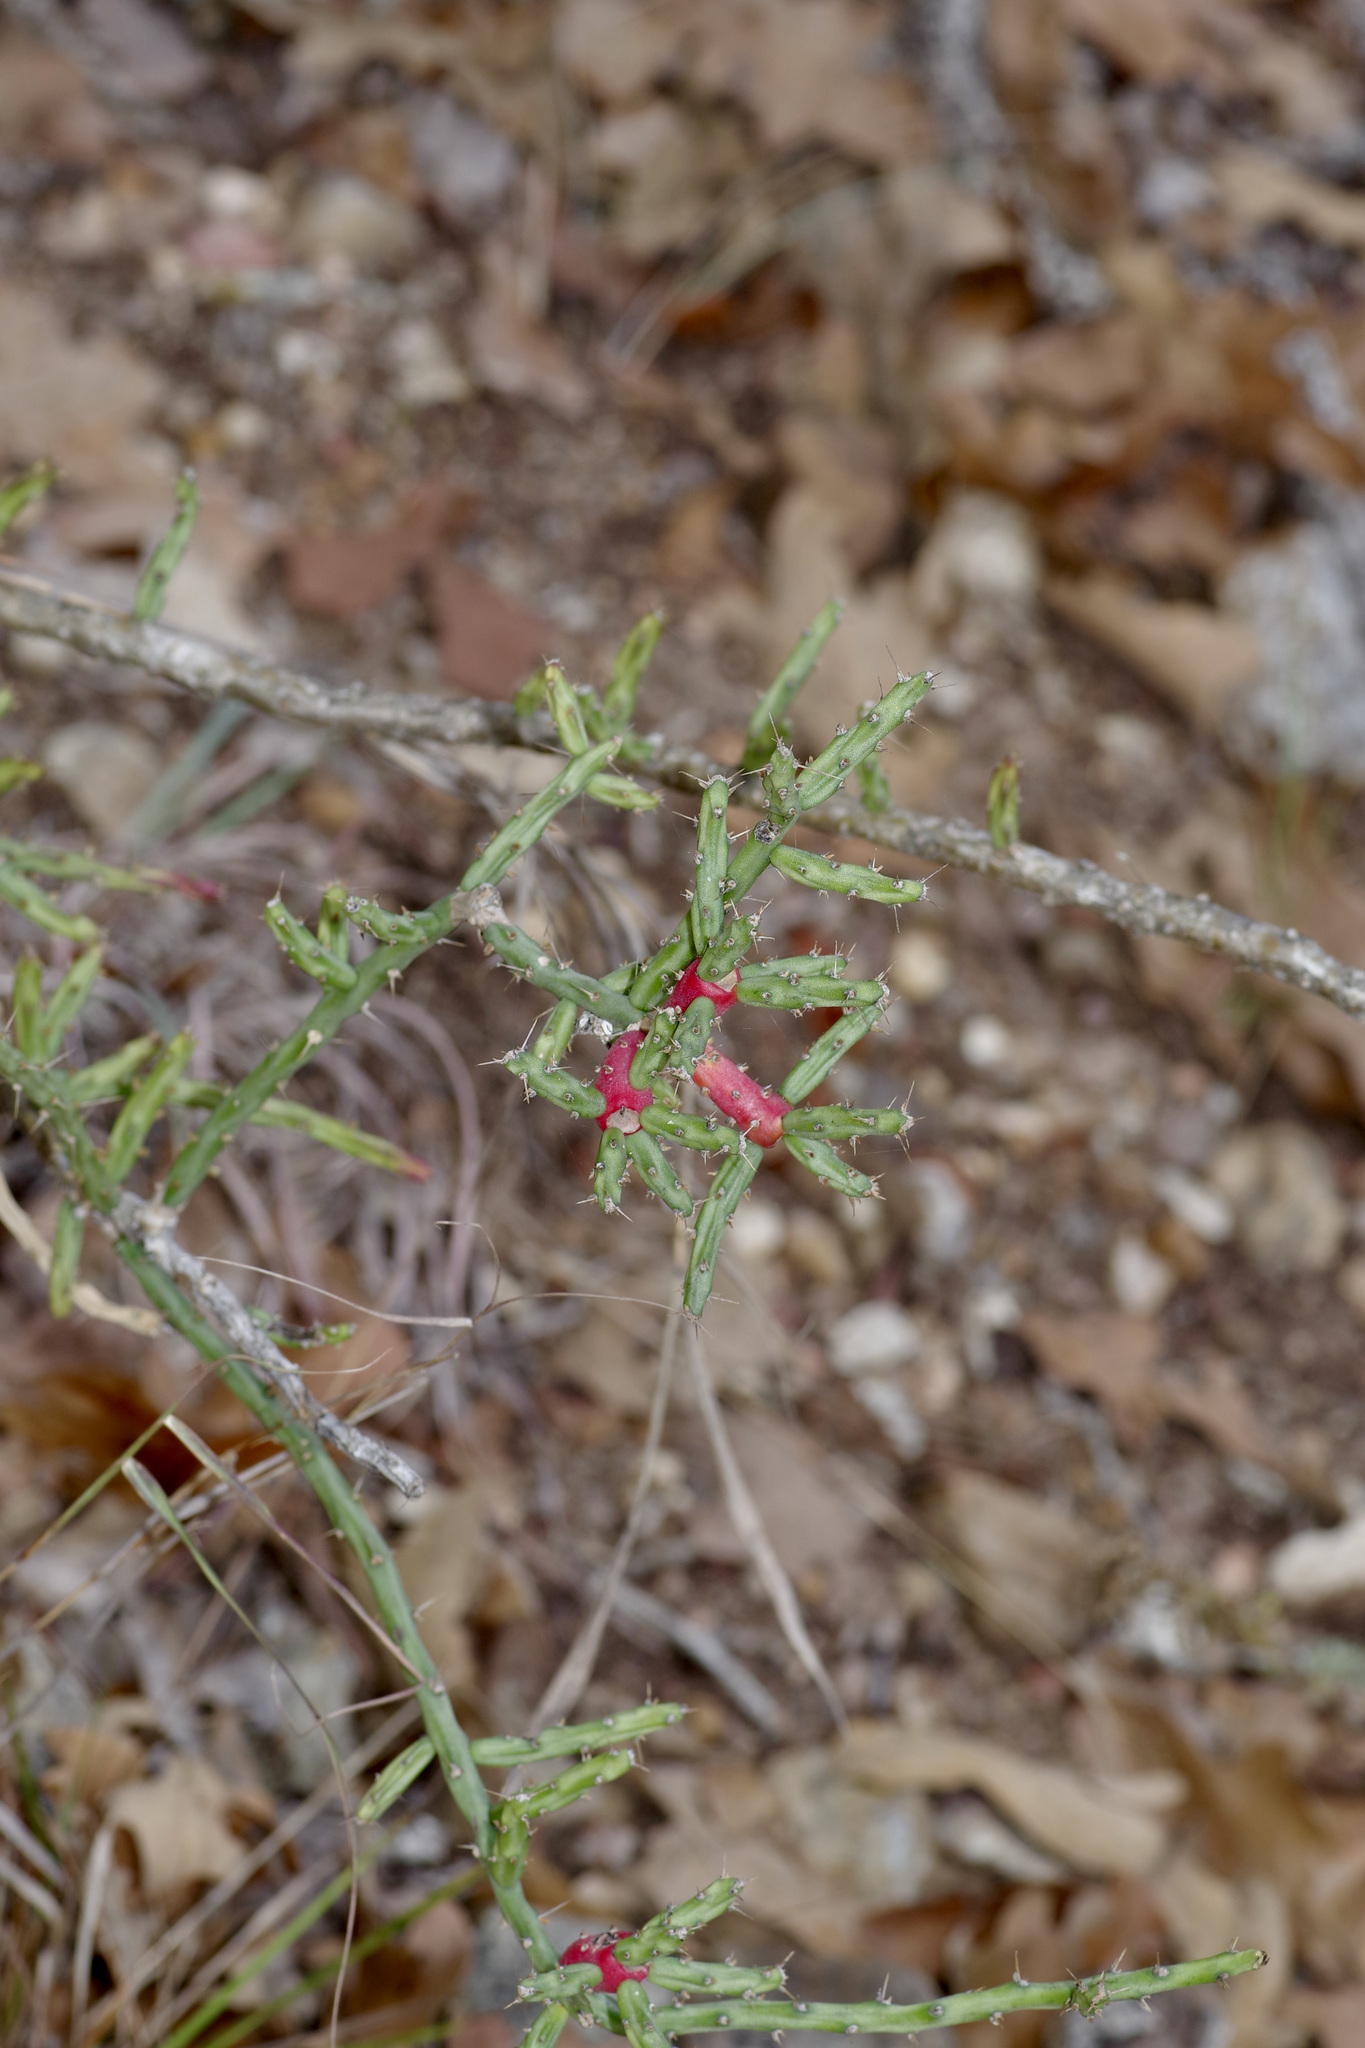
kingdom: Plantae
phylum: Tracheophyta
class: Magnoliopsida
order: Caryophyllales
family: Cactaceae
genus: Cylindropuntia
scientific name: Cylindropuntia leptocaulis
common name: Christmas cactus
